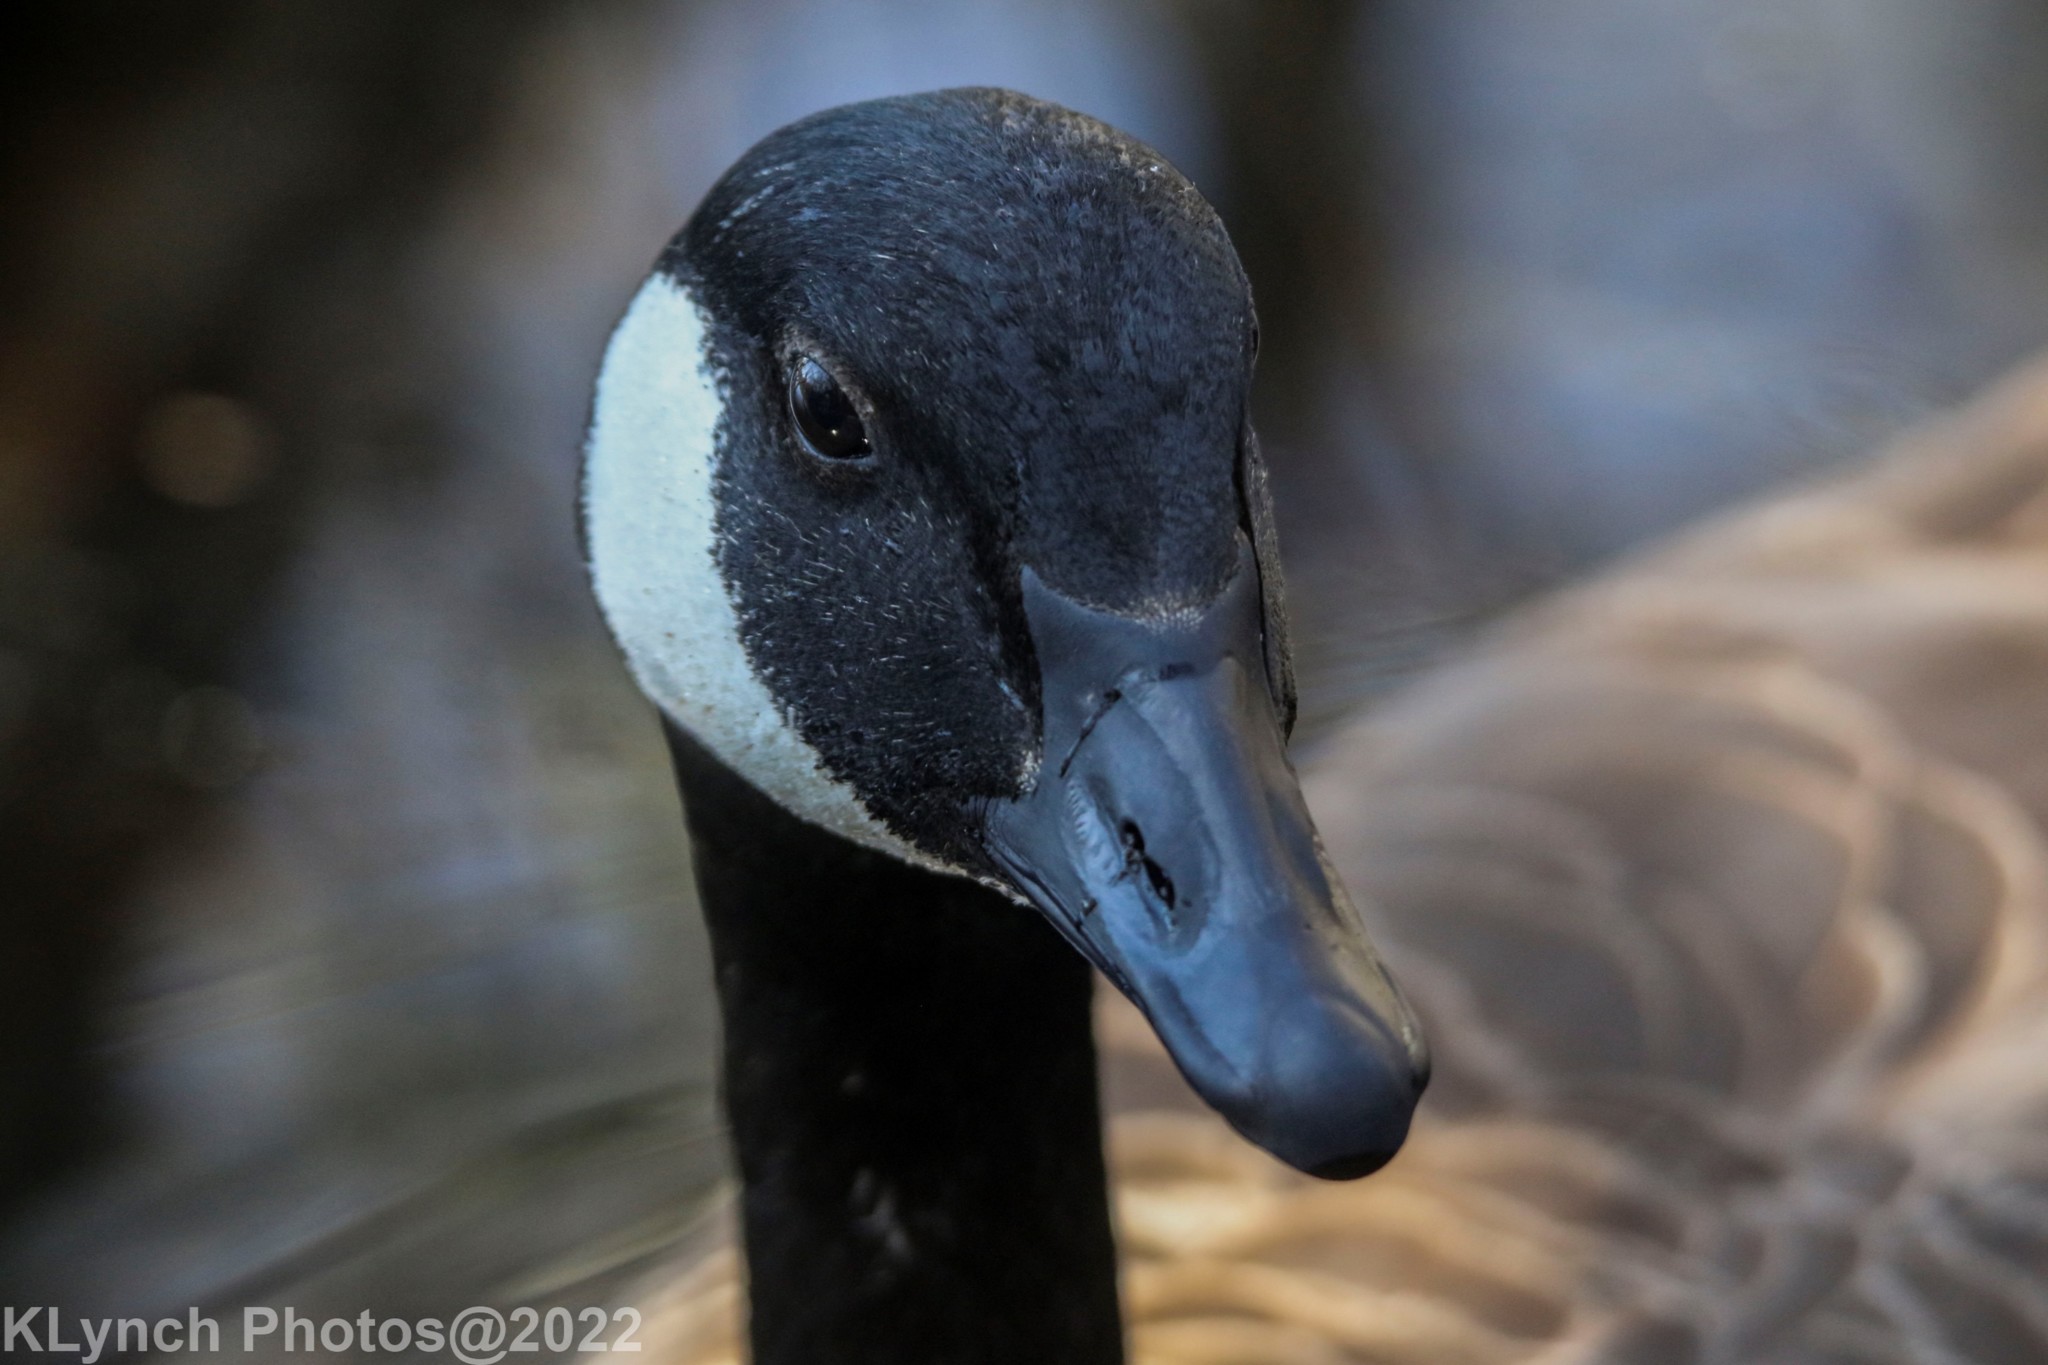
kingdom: Animalia
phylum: Chordata
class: Aves
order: Anseriformes
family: Anatidae
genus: Branta
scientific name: Branta canadensis
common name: Canada goose
